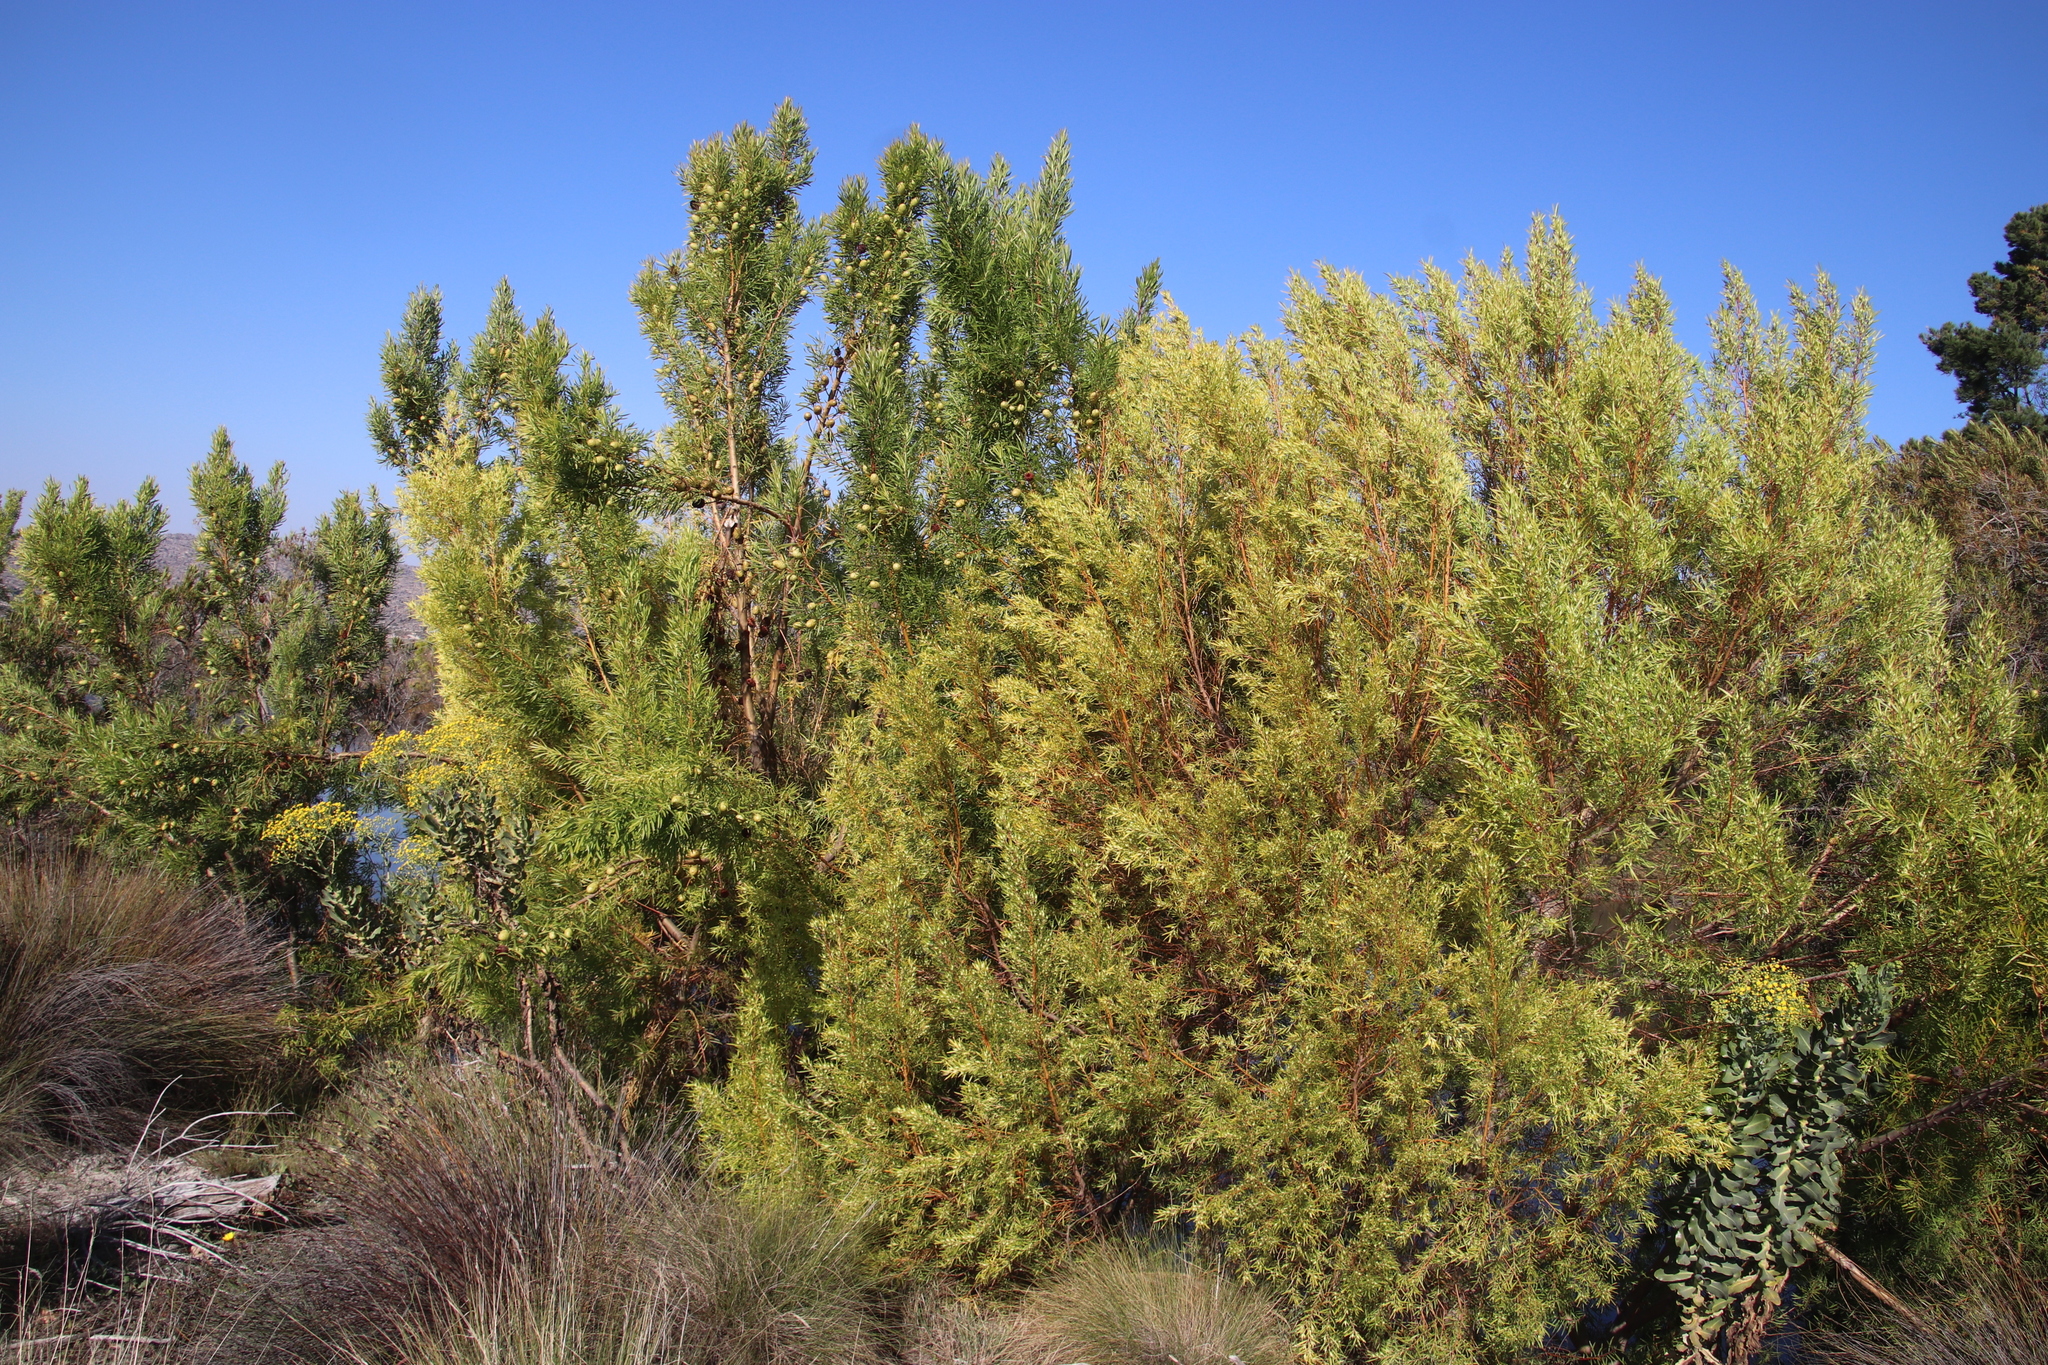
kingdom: Plantae
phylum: Tracheophyta
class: Magnoliopsida
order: Proteales
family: Proteaceae
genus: Leucadendron
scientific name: Leucadendron salicifolium
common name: Common stream conebush
